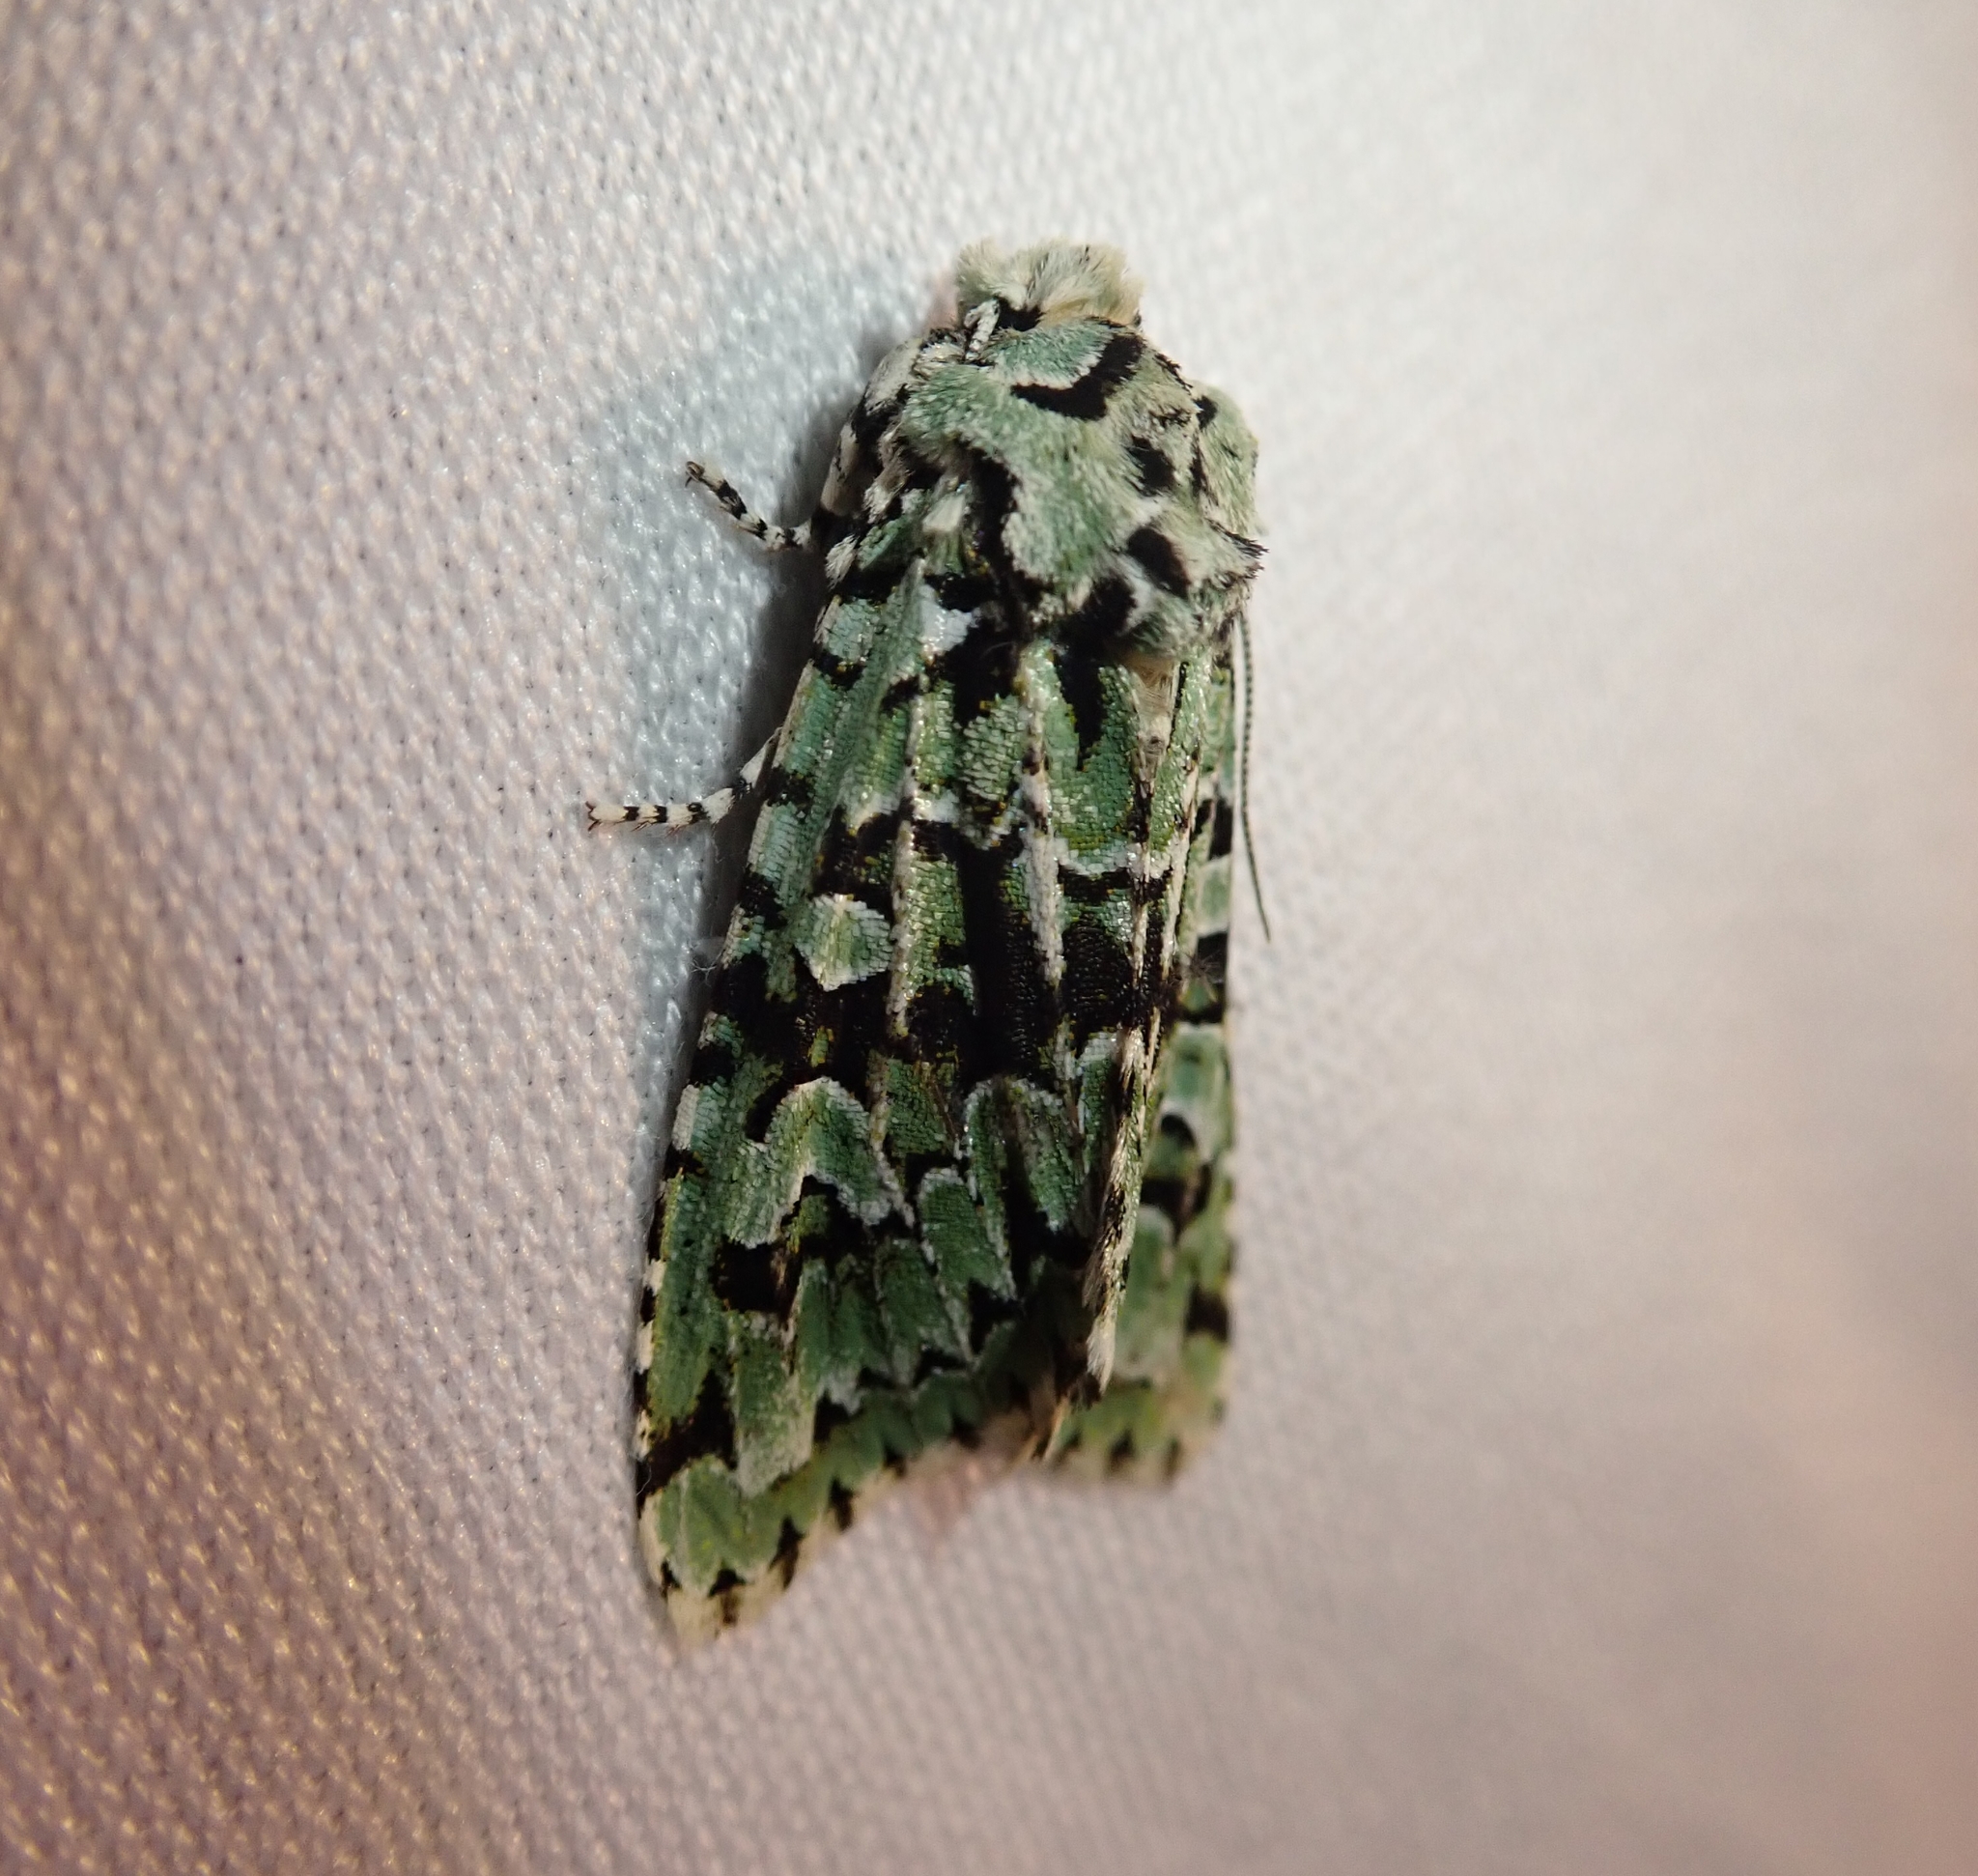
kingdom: Animalia
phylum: Arthropoda
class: Insecta
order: Lepidoptera
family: Noctuidae
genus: Griposia
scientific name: Griposia aprilina
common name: Merveille du jour
